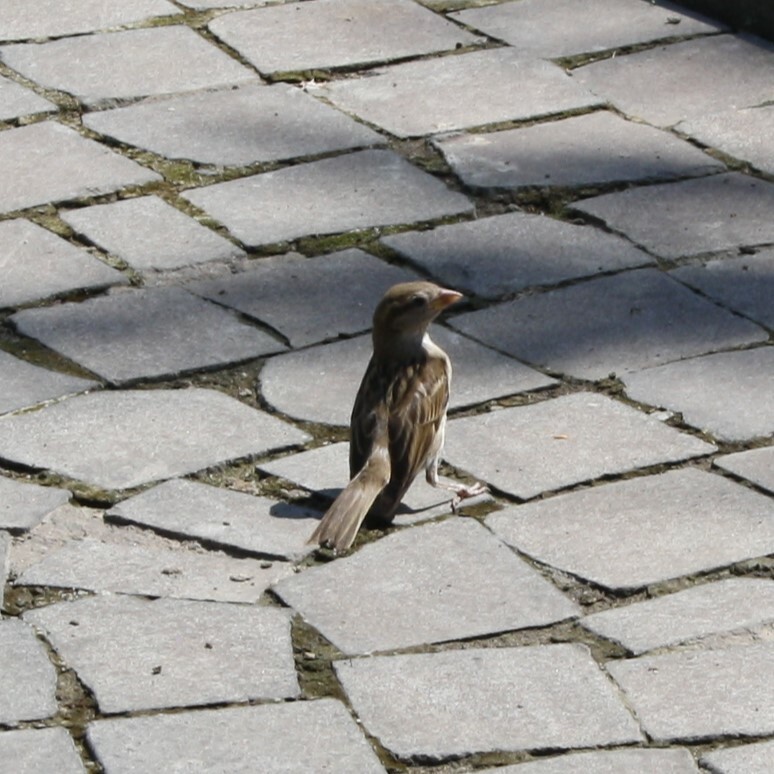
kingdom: Animalia
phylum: Chordata
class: Aves
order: Passeriformes
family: Passeridae
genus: Passer
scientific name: Passer domesticus
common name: House sparrow
